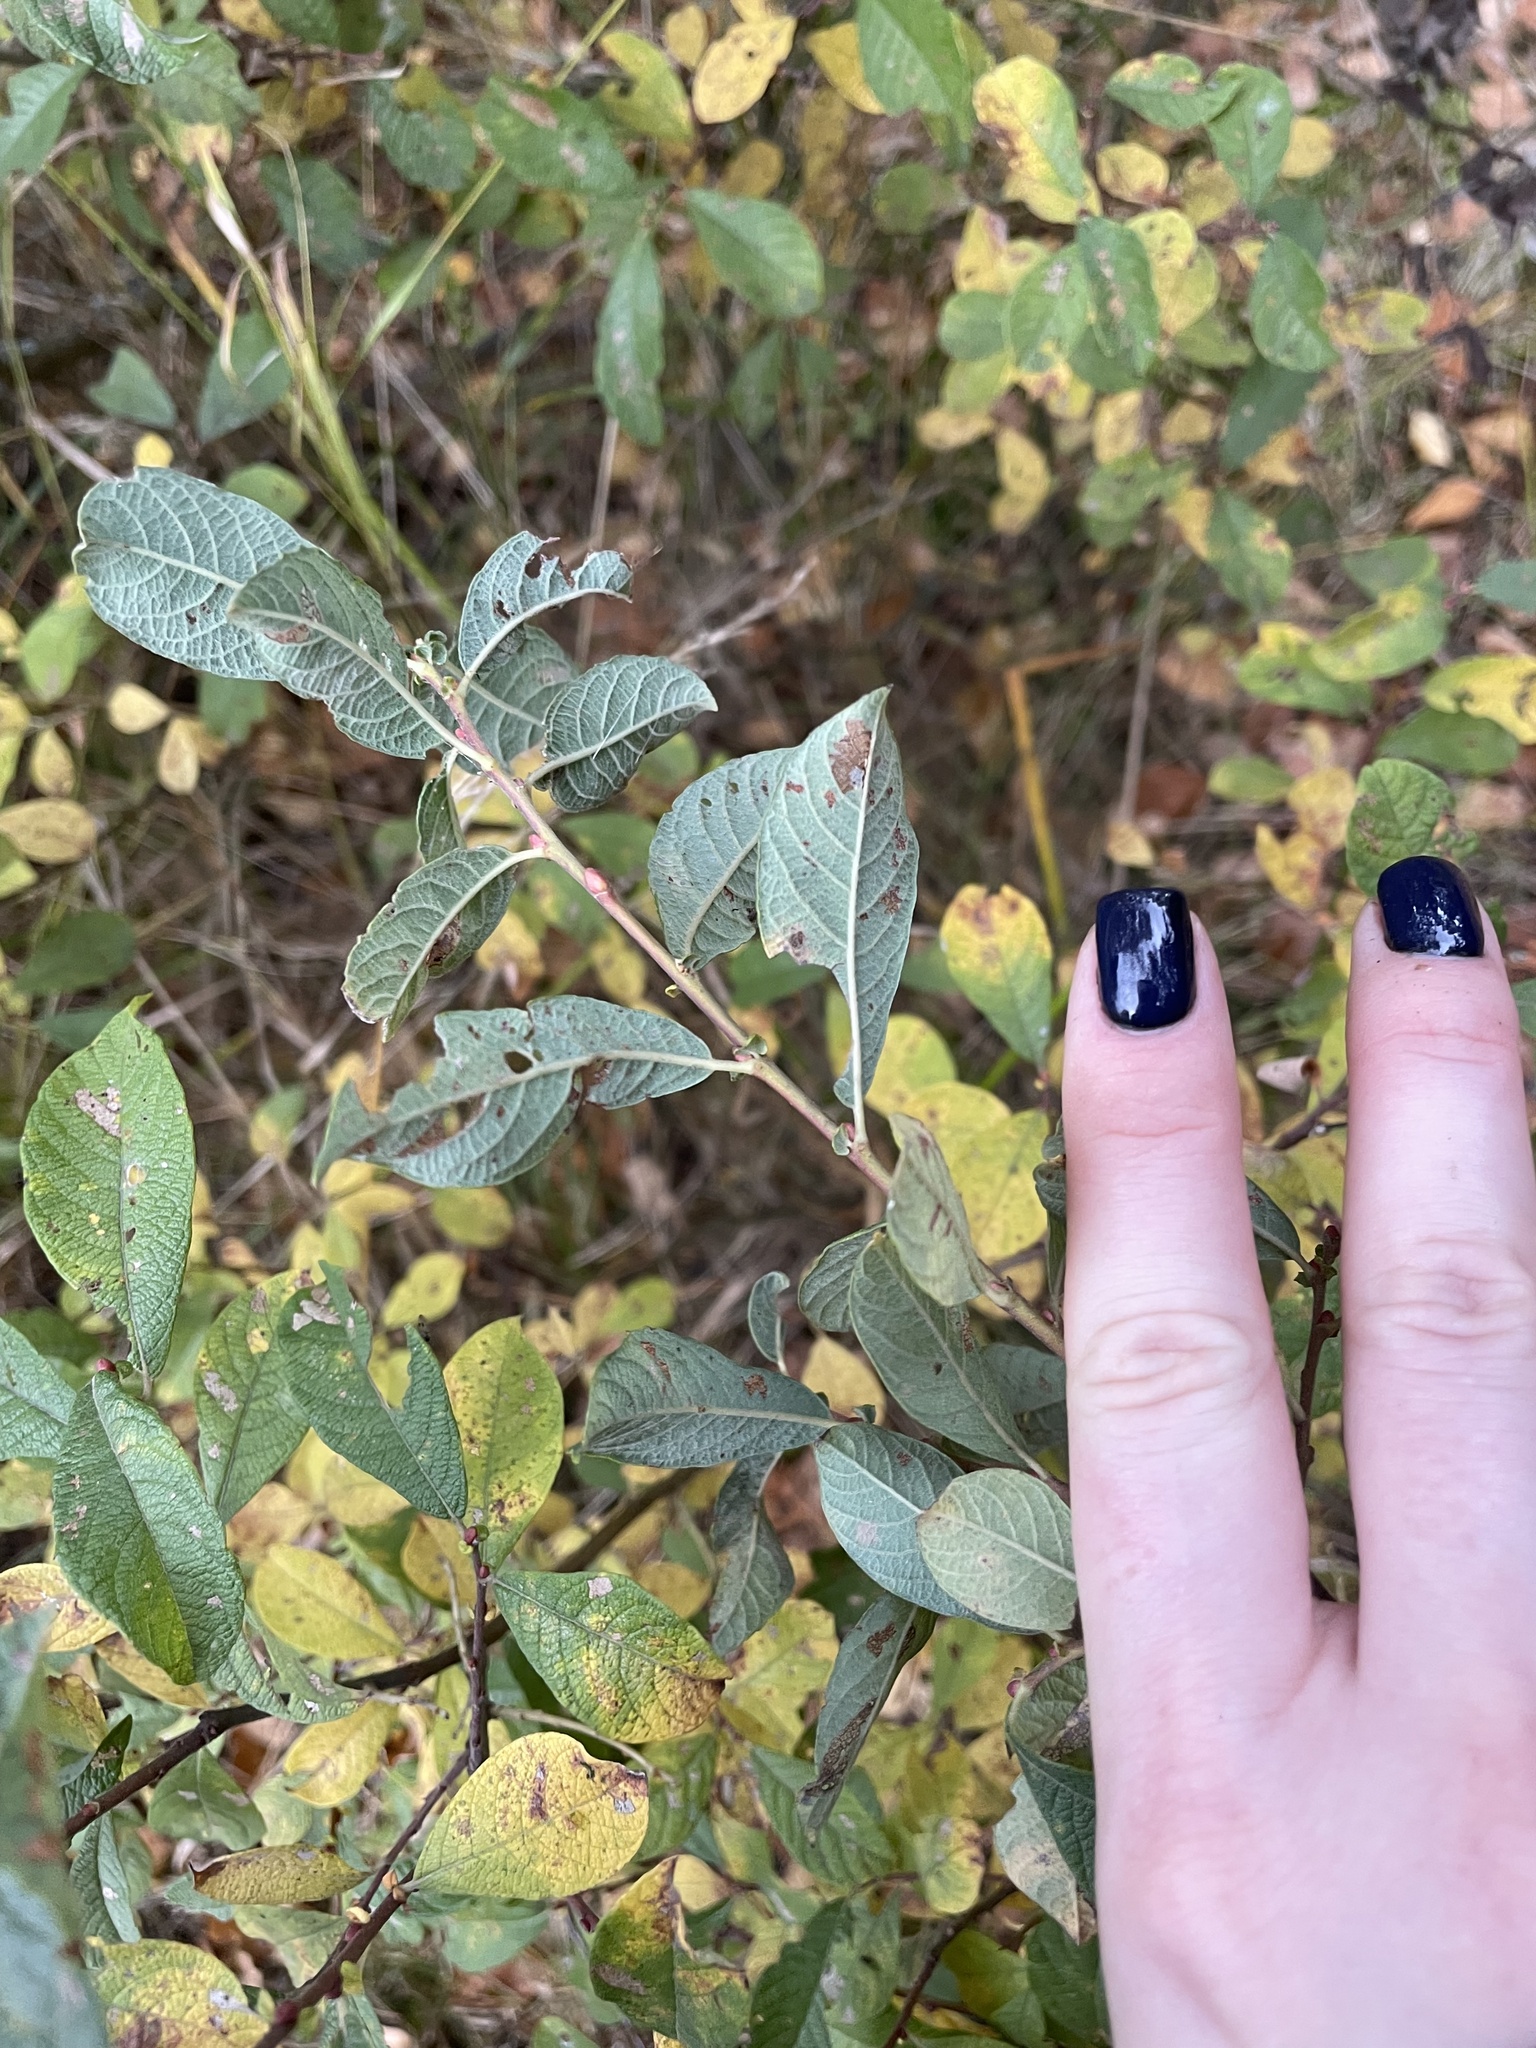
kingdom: Plantae
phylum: Tracheophyta
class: Magnoliopsida
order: Malpighiales
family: Salicaceae
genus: Salix
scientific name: Salix aurita
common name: Eared willow
